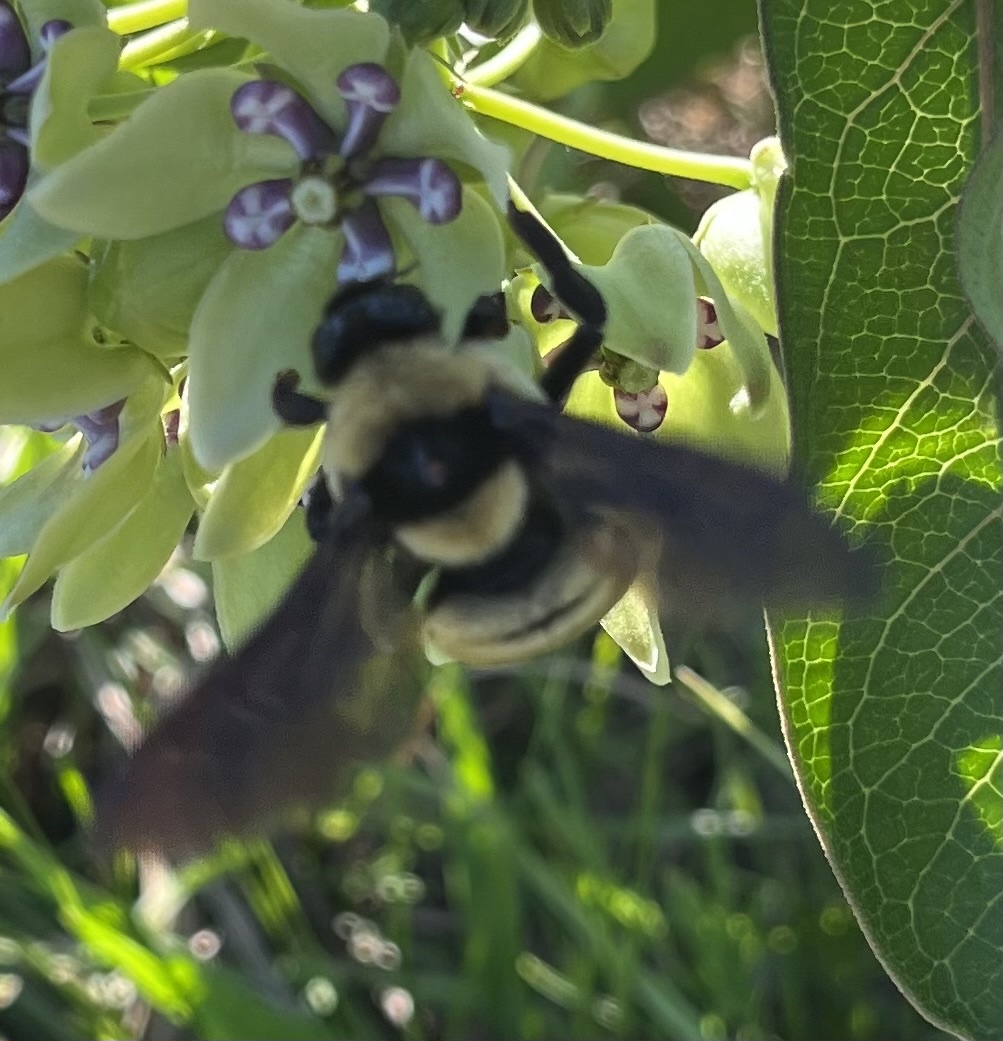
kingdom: Animalia
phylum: Arthropoda
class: Insecta
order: Hymenoptera
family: Apidae
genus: Bombus
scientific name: Bombus fraternus
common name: Southern plains bumble bee
